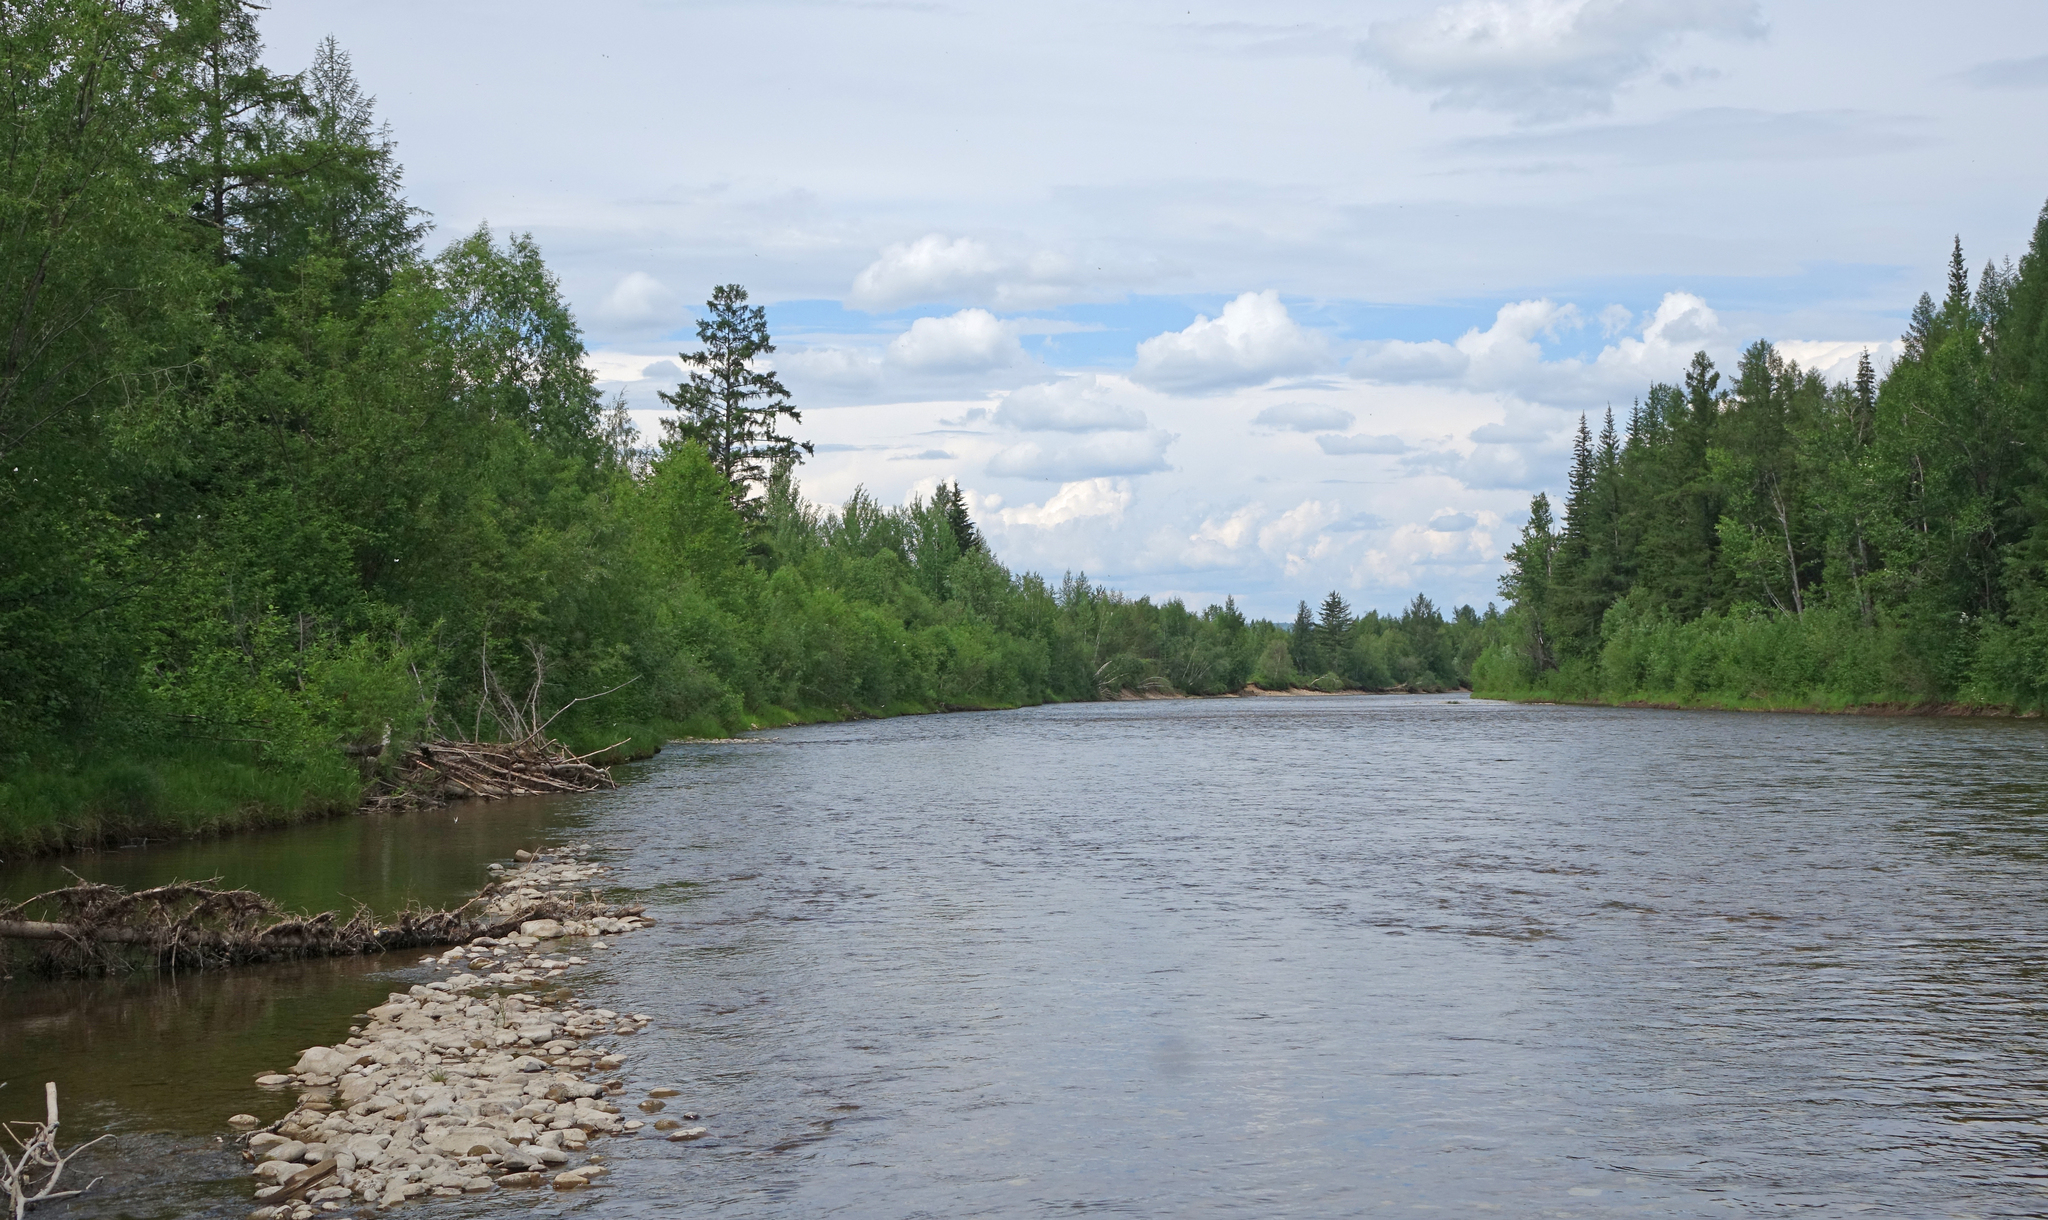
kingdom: Plantae
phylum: Tracheophyta
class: Pinopsida
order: Pinales
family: Pinaceae
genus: Larix
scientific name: Larix gmelinii
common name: Dahurian larch
